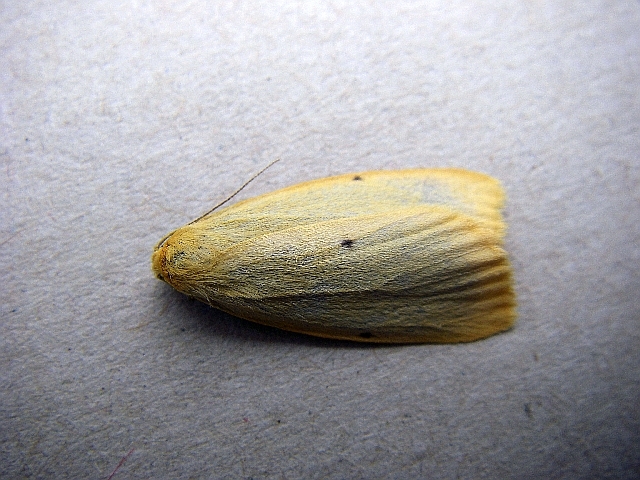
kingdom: Animalia
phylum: Arthropoda
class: Insecta
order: Lepidoptera
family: Erebidae
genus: Cybosia
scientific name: Cybosia mesomella
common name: Four-dotted footman
